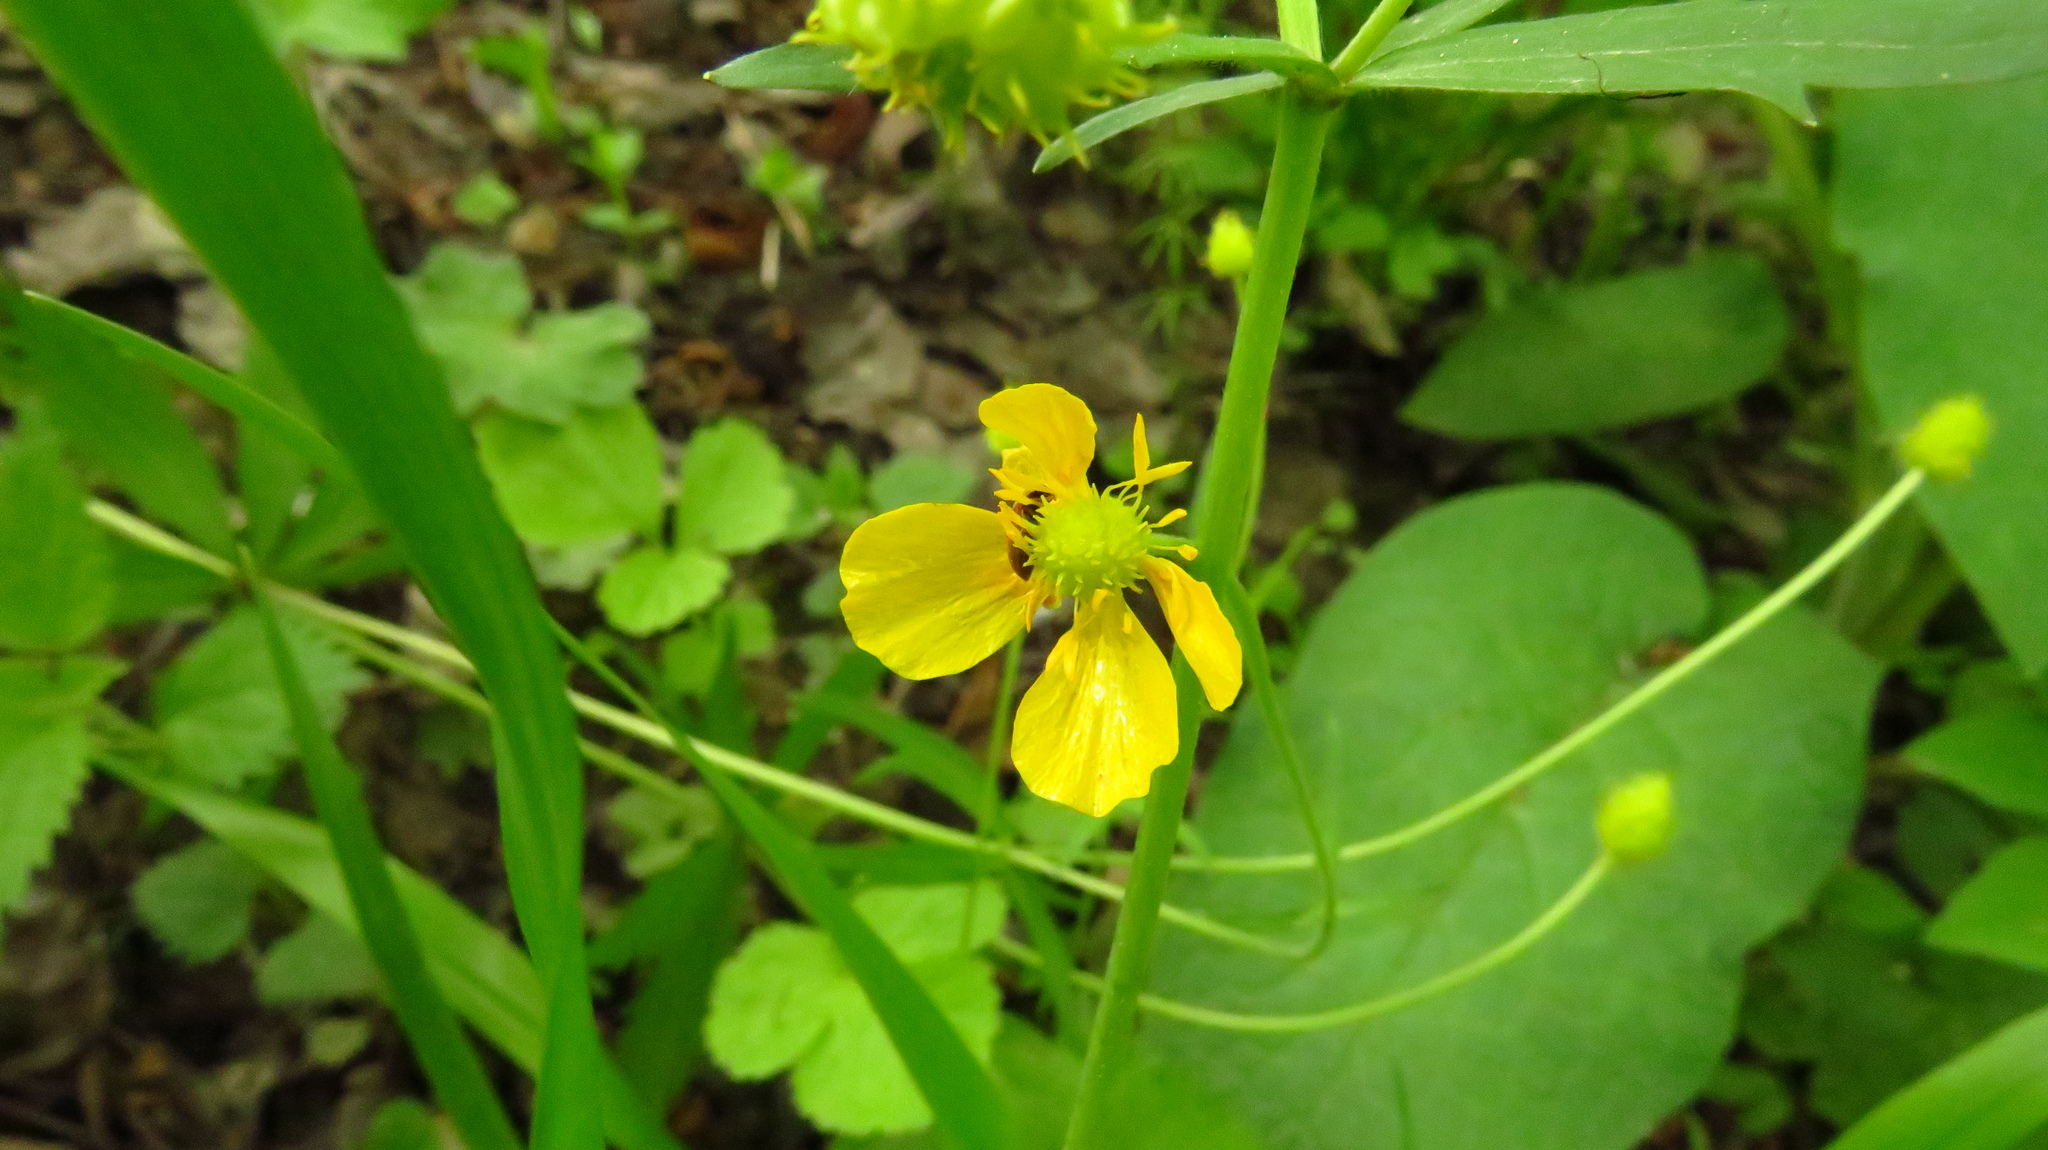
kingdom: Plantae
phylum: Tracheophyta
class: Magnoliopsida
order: Ranunculales
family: Ranunculaceae
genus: Ranunculus
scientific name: Ranunculus cassubicus
